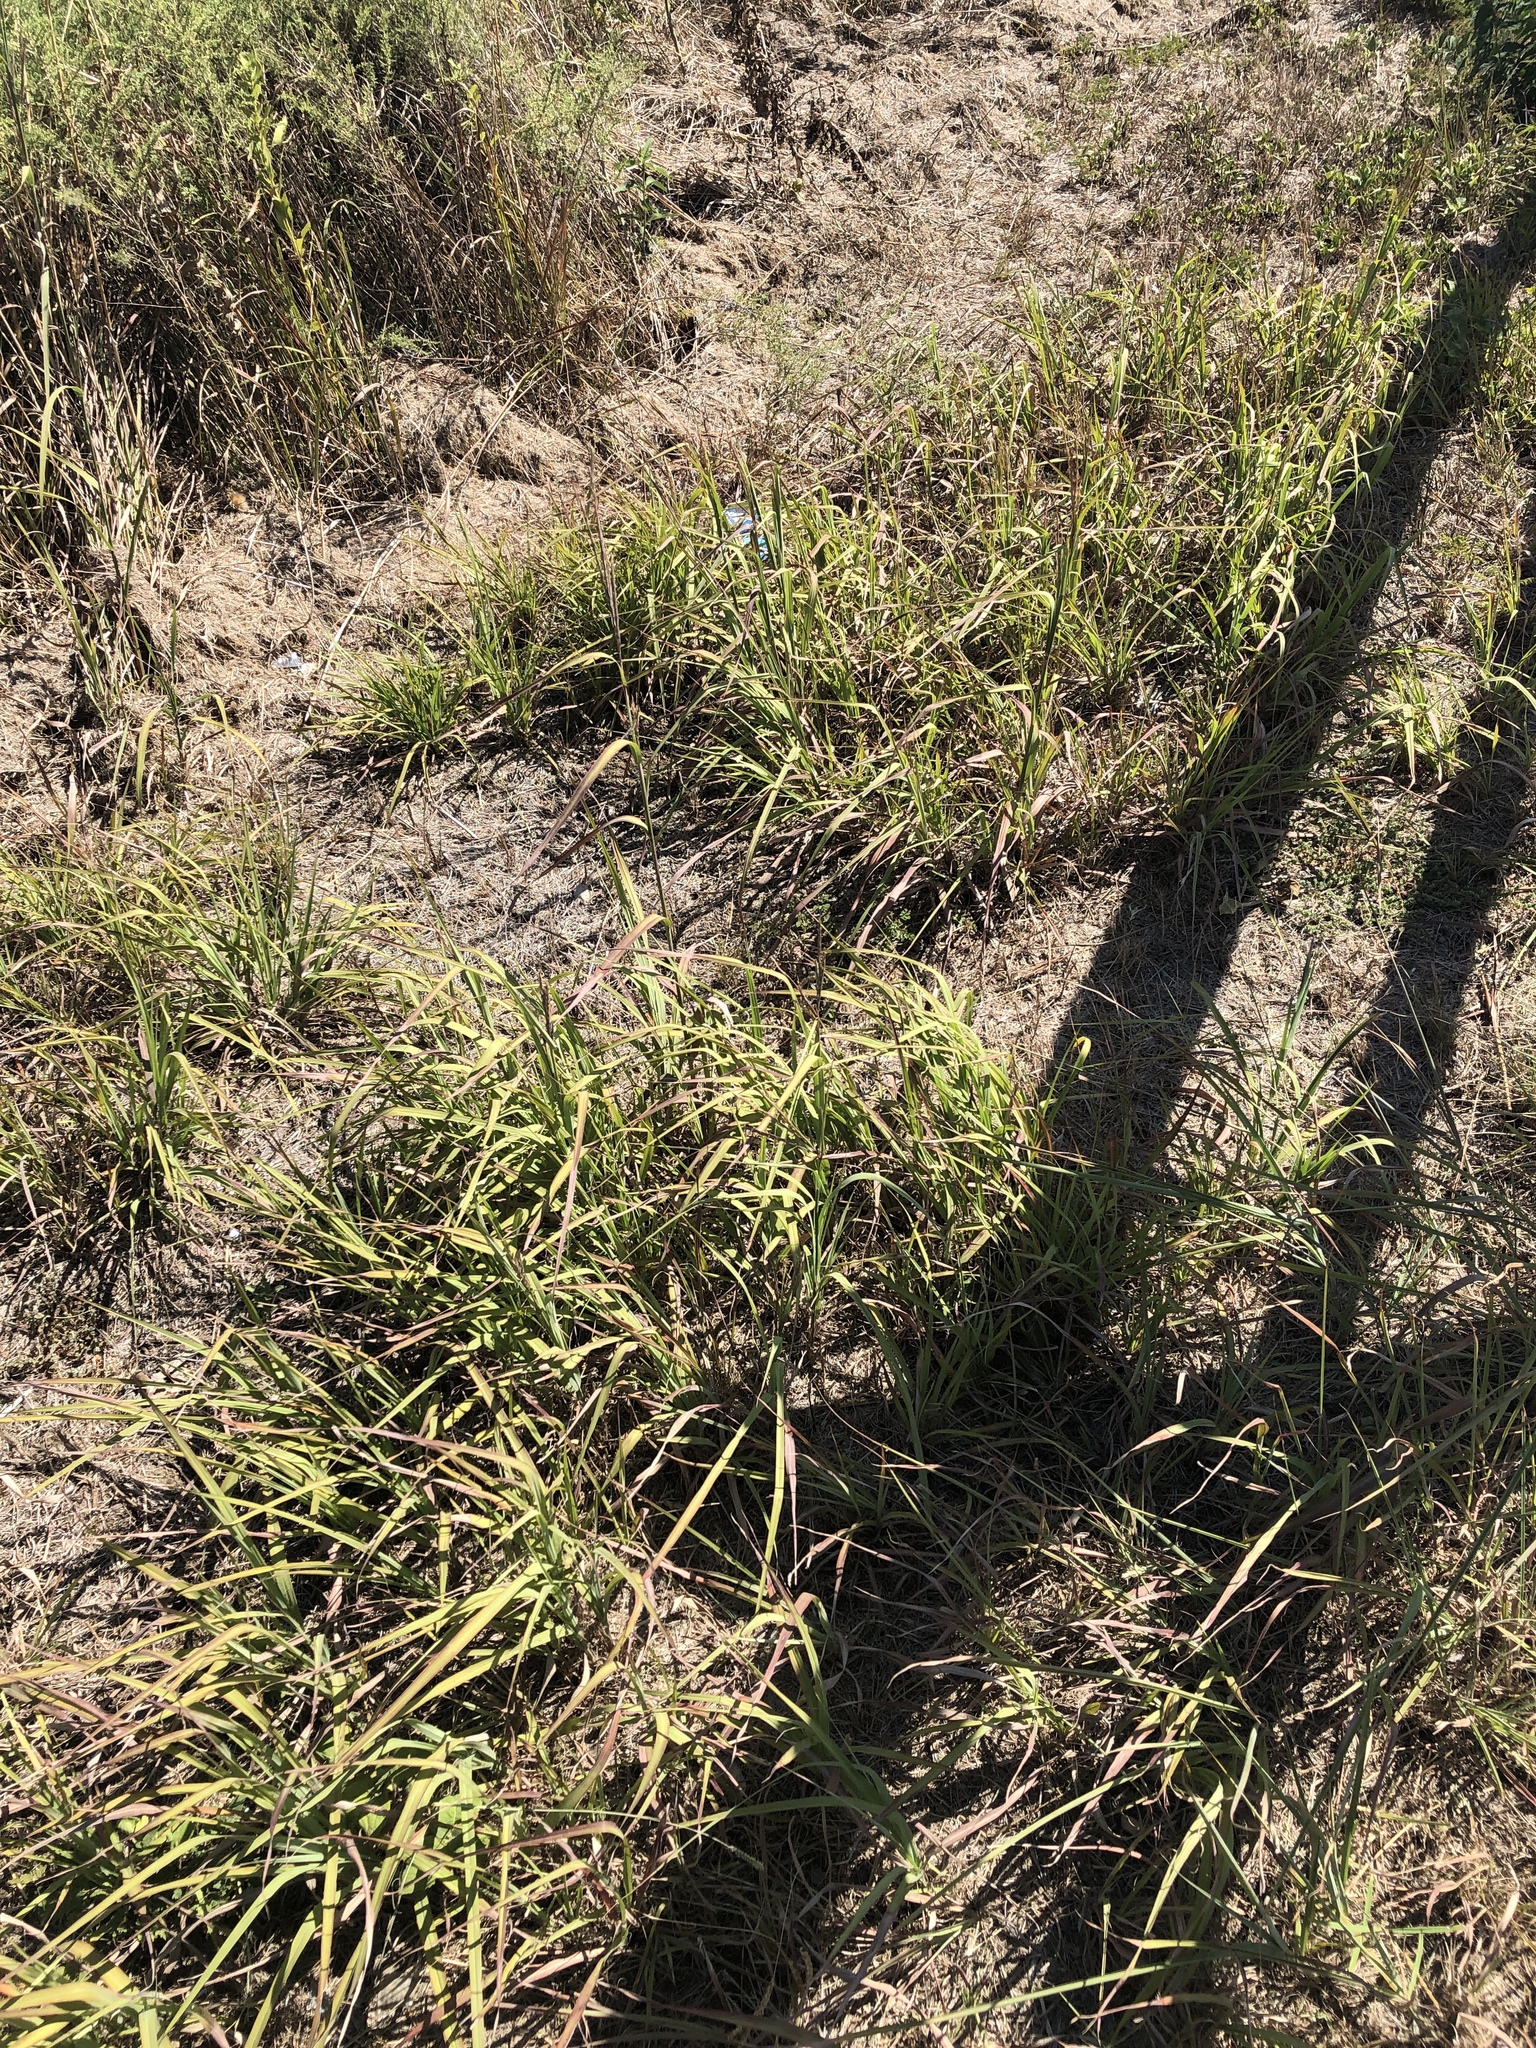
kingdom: Plantae
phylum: Tracheophyta
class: Liliopsida
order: Poales
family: Poaceae
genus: Andropogon
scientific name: Andropogon gerardi
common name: Big bluestem
